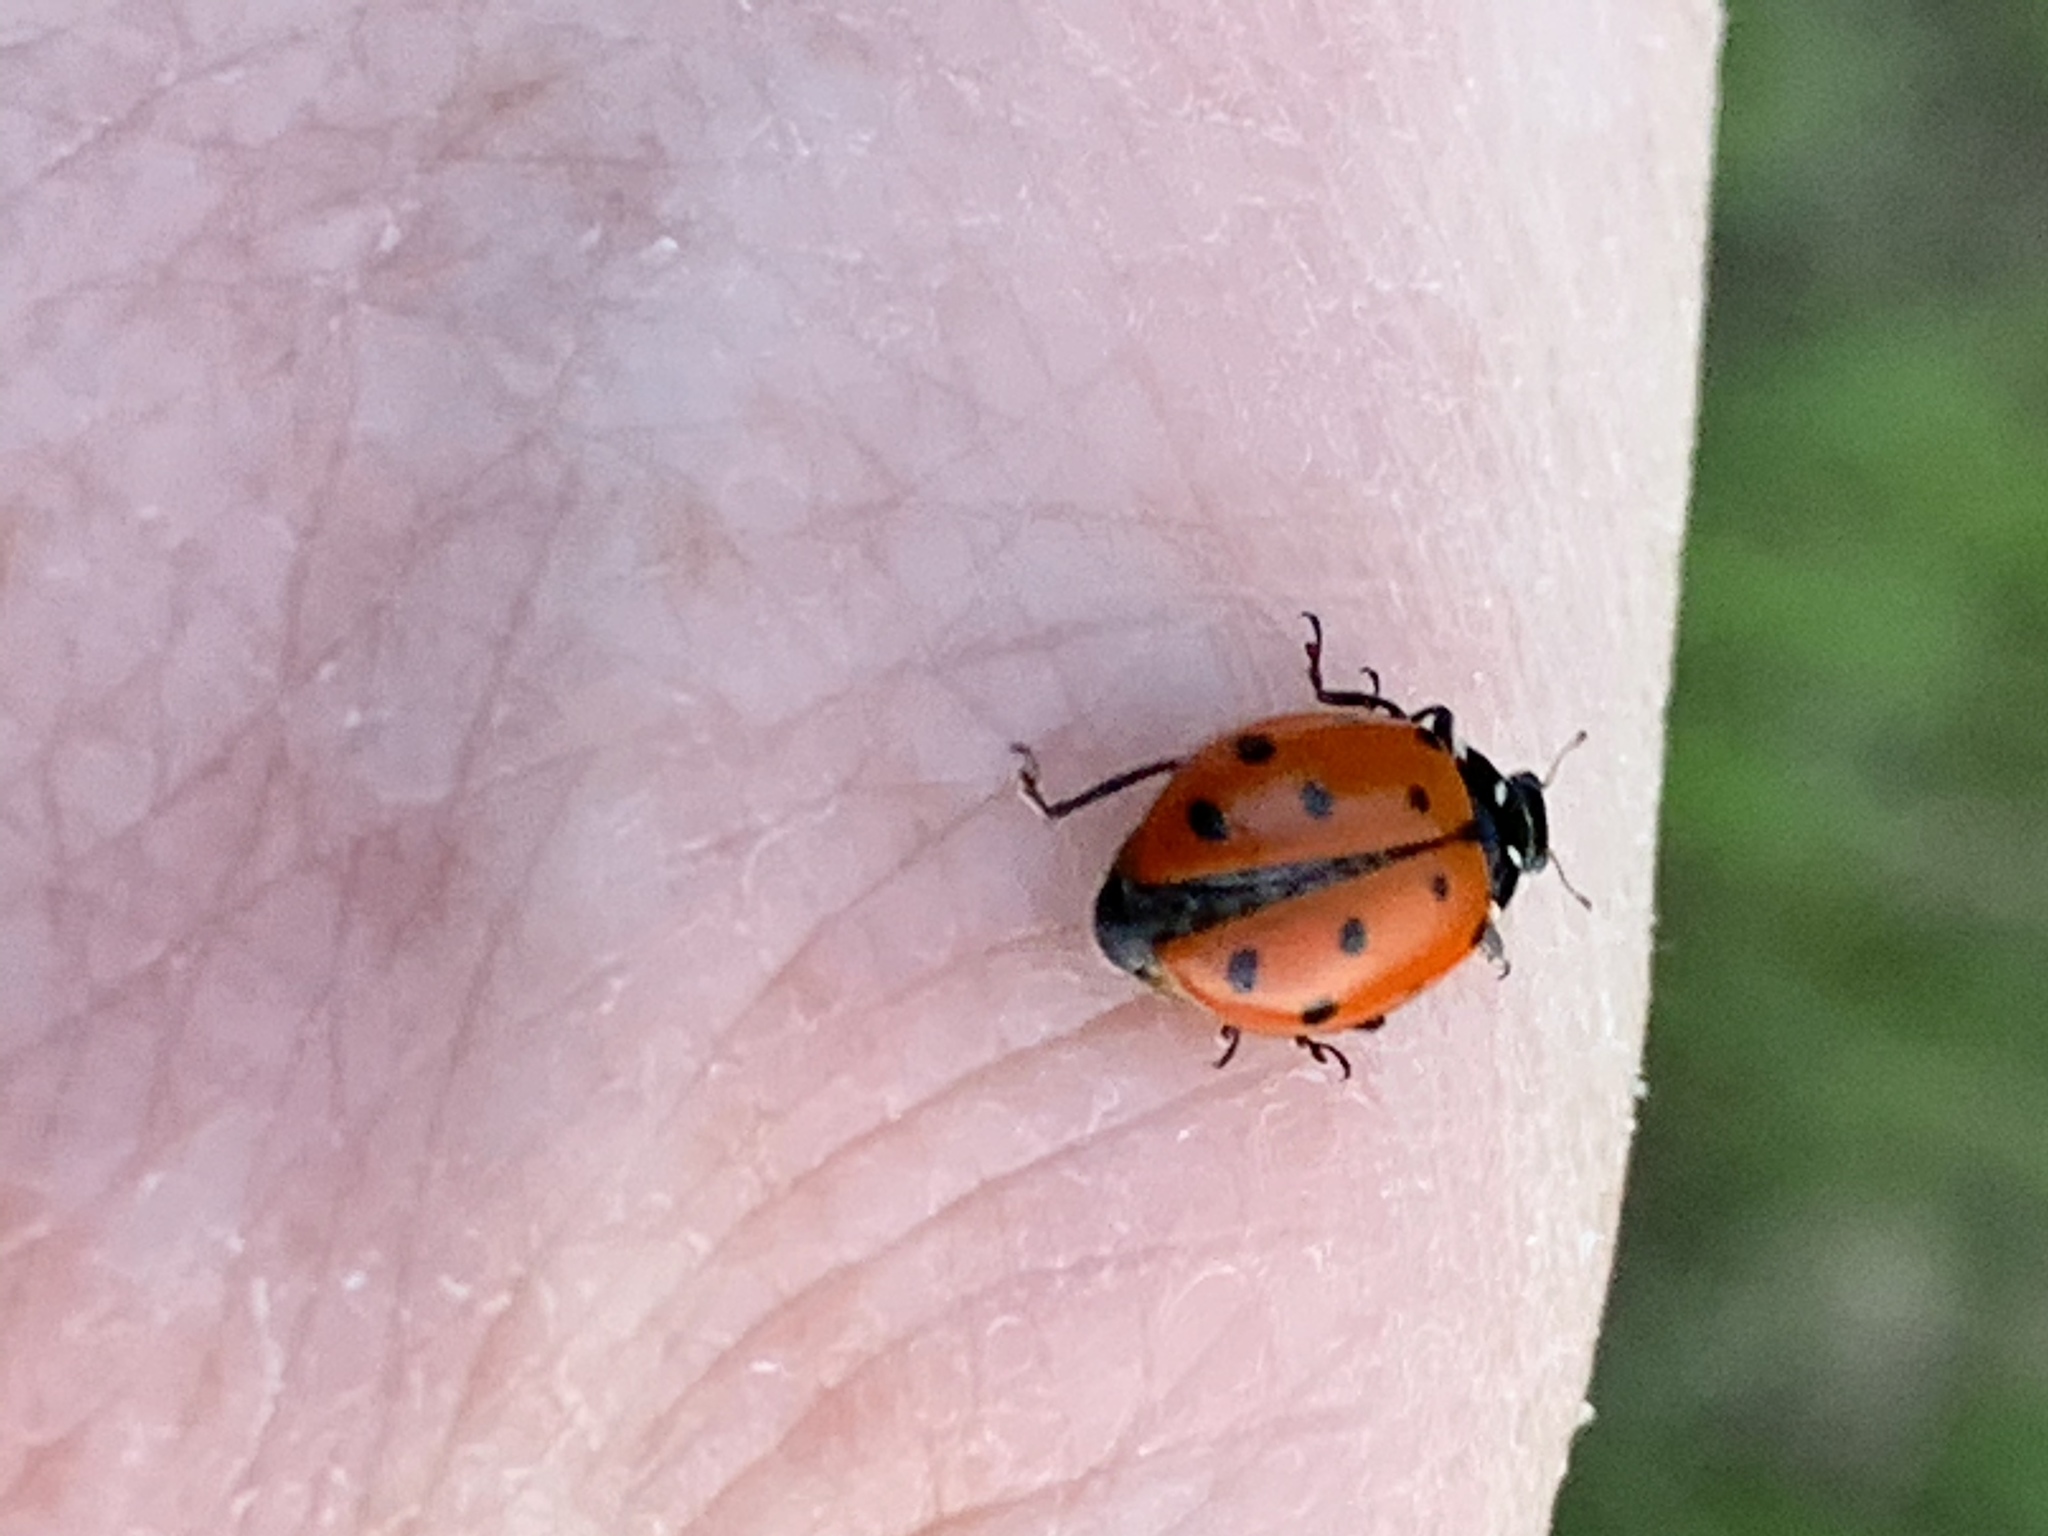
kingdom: Animalia
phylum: Arthropoda
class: Insecta
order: Coleoptera
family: Coccinellidae
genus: Hippodamia
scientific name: Hippodamia convergens
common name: Convergent lady beetle
